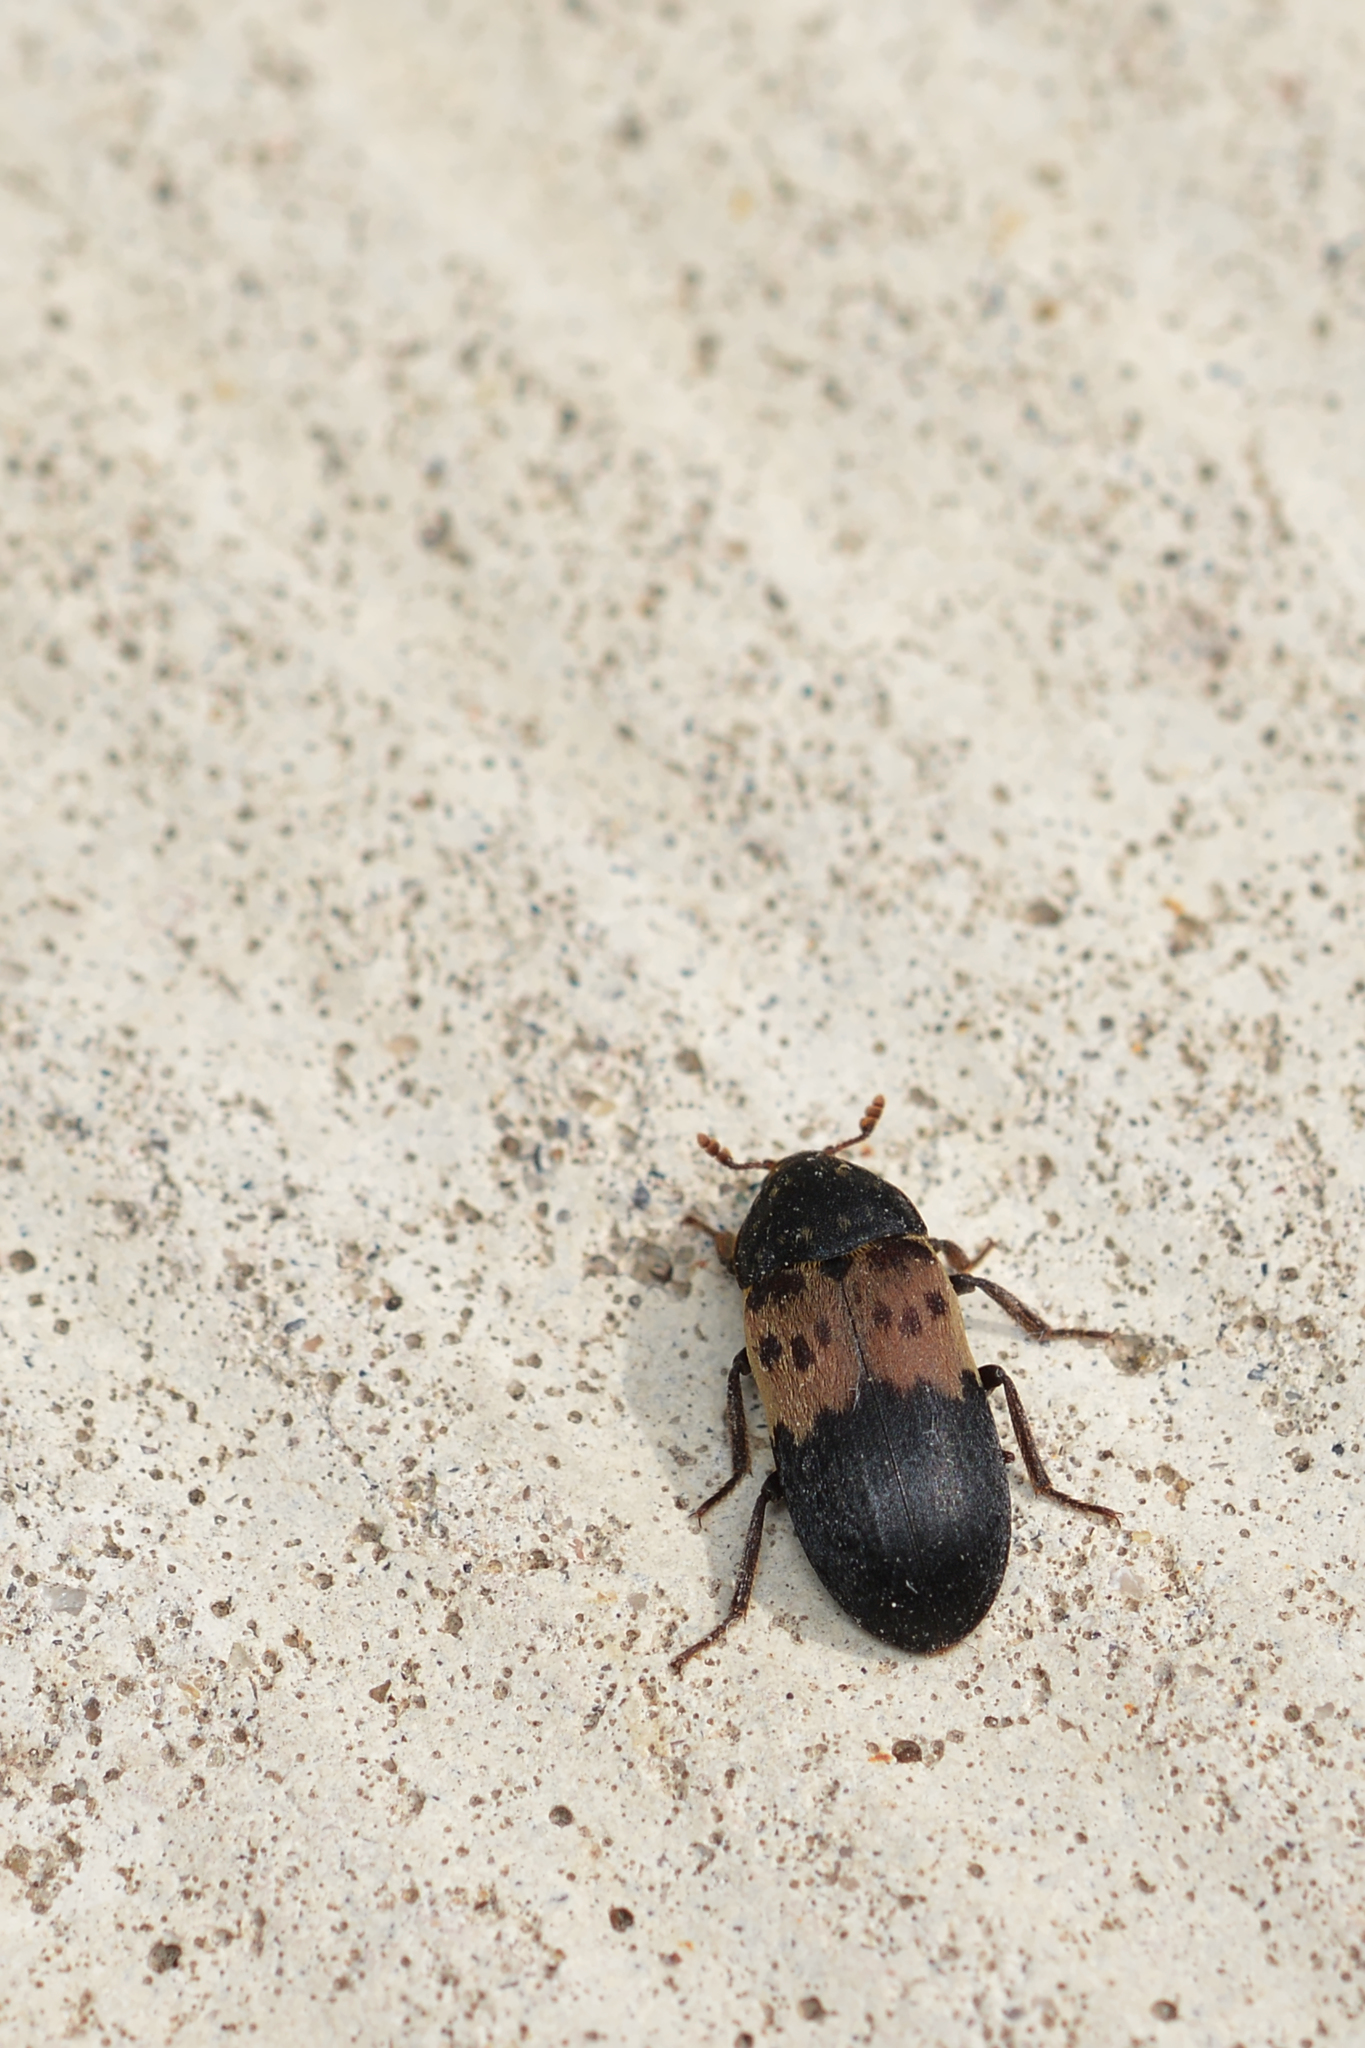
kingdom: Animalia
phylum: Arthropoda
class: Insecta
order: Coleoptera
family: Dermestidae
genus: Dermestes
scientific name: Dermestes lardarius
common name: Larder beetle
